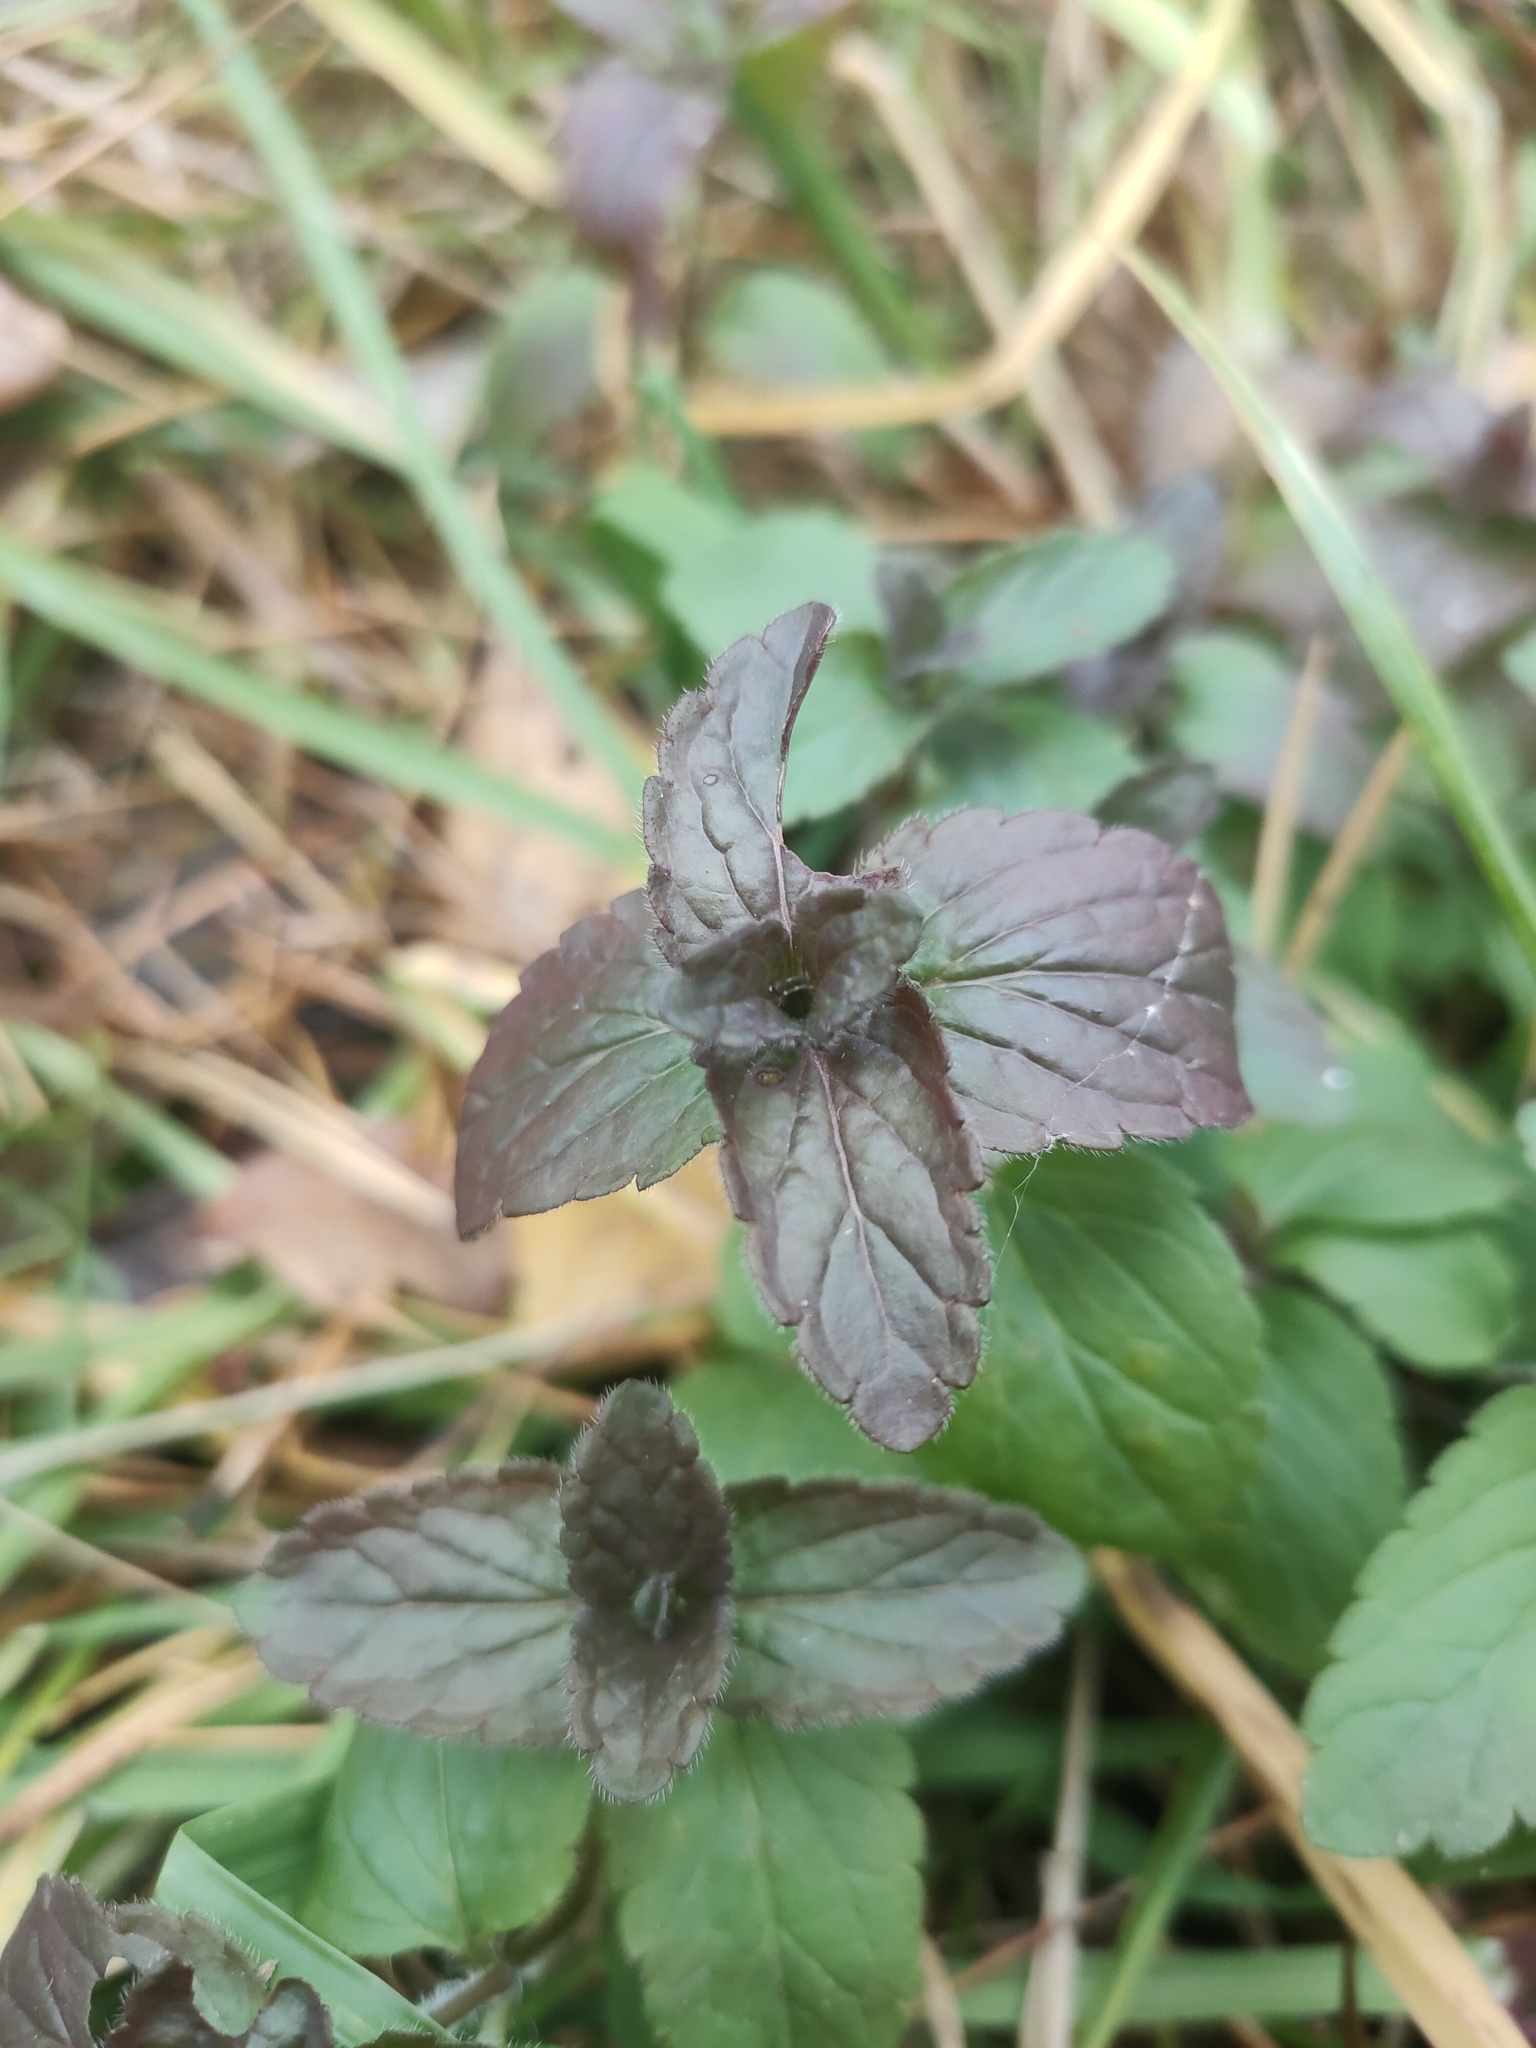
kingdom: Plantae
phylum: Tracheophyta
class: Magnoliopsida
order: Lamiales
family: Plantaginaceae
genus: Veronica
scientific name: Veronica chamaedrys
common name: Germander speedwell
